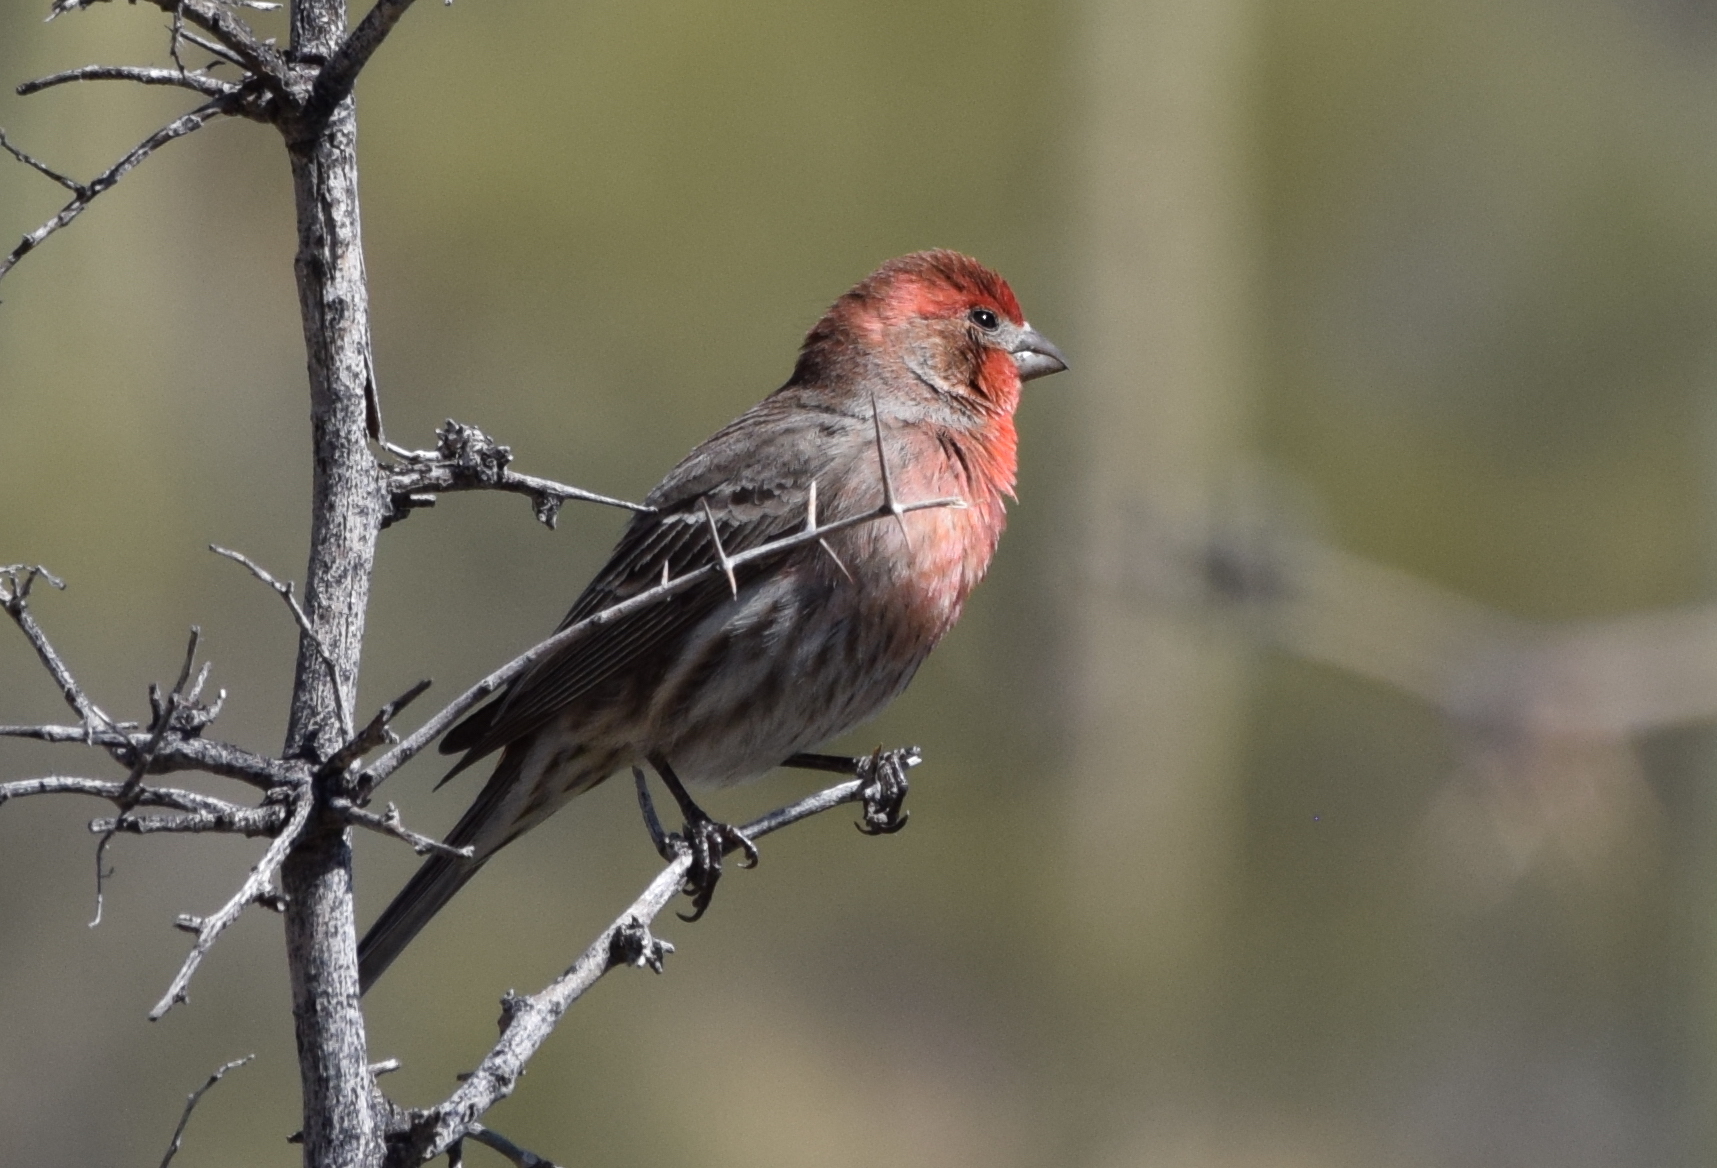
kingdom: Animalia
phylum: Chordata
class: Aves
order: Passeriformes
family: Fringillidae
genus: Haemorhous
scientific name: Haemorhous mexicanus
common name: House finch
